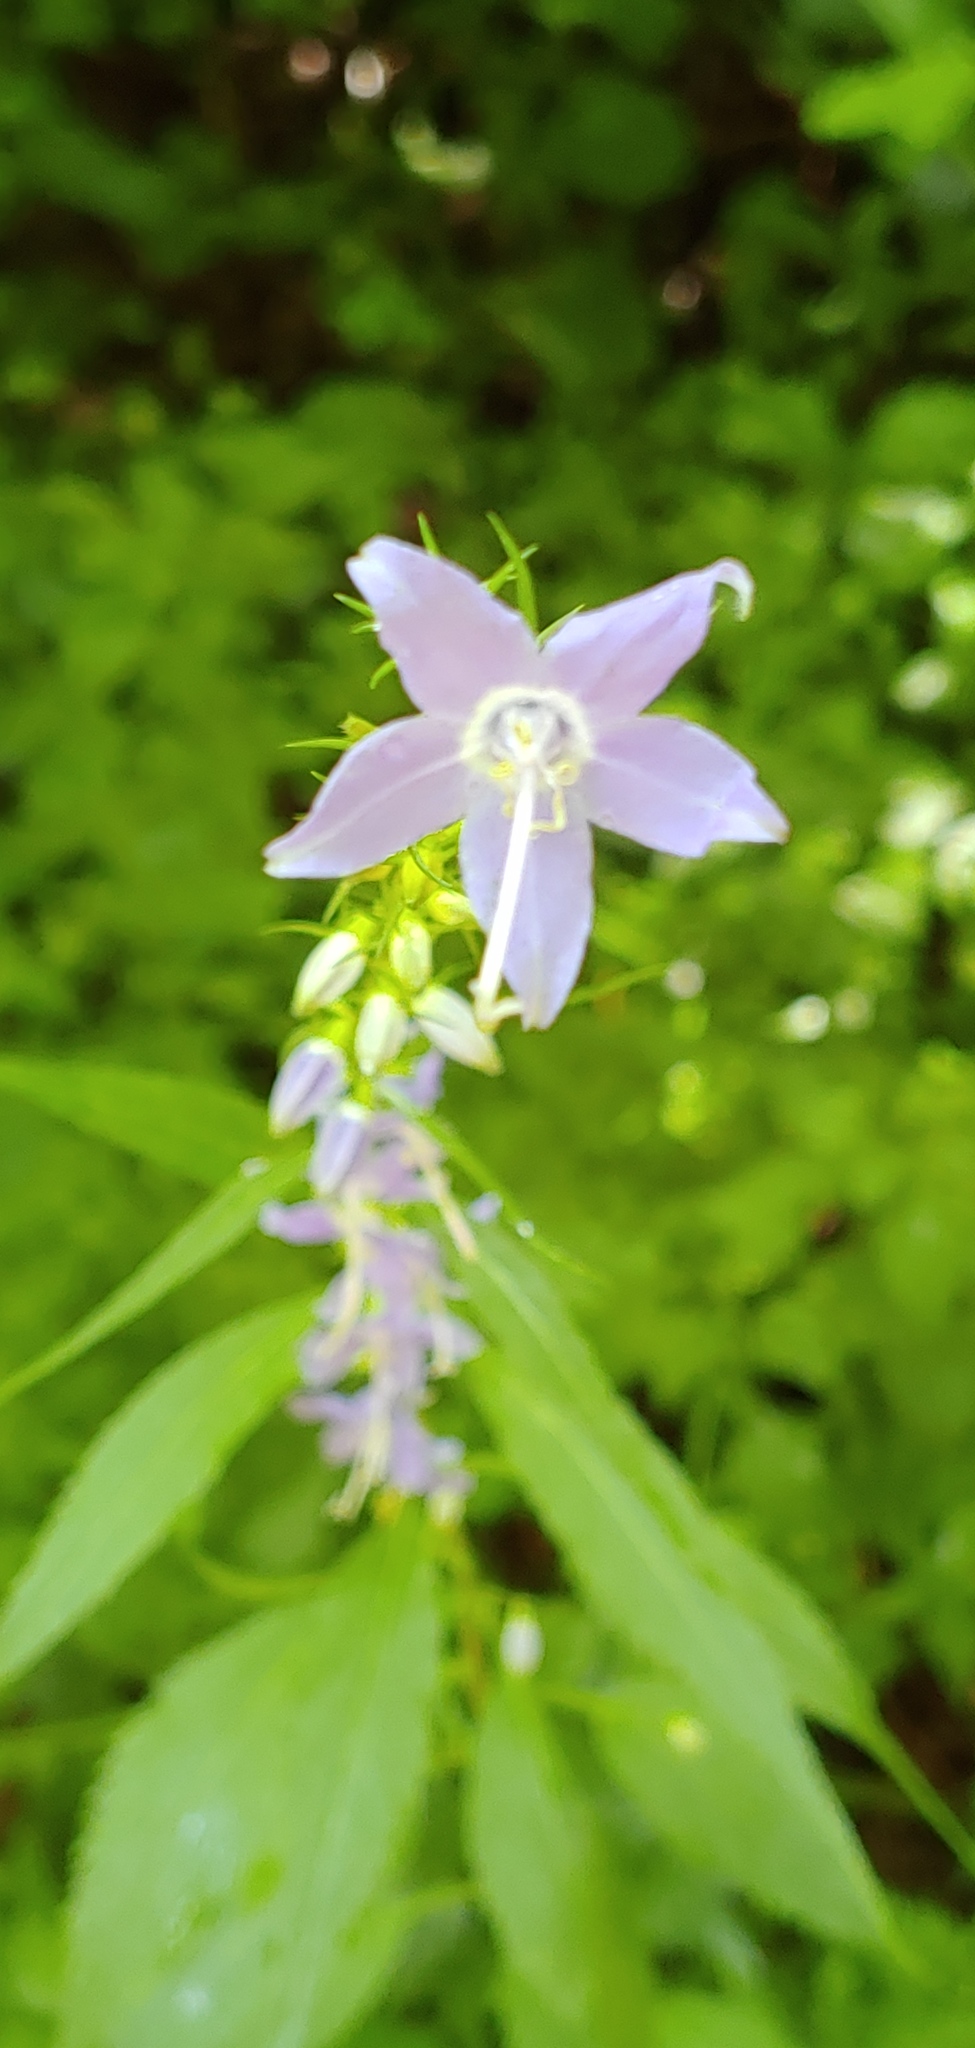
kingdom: Plantae
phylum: Tracheophyta
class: Magnoliopsida
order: Asterales
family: Campanulaceae
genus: Campanulastrum
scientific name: Campanulastrum americanum
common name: American bellflower
